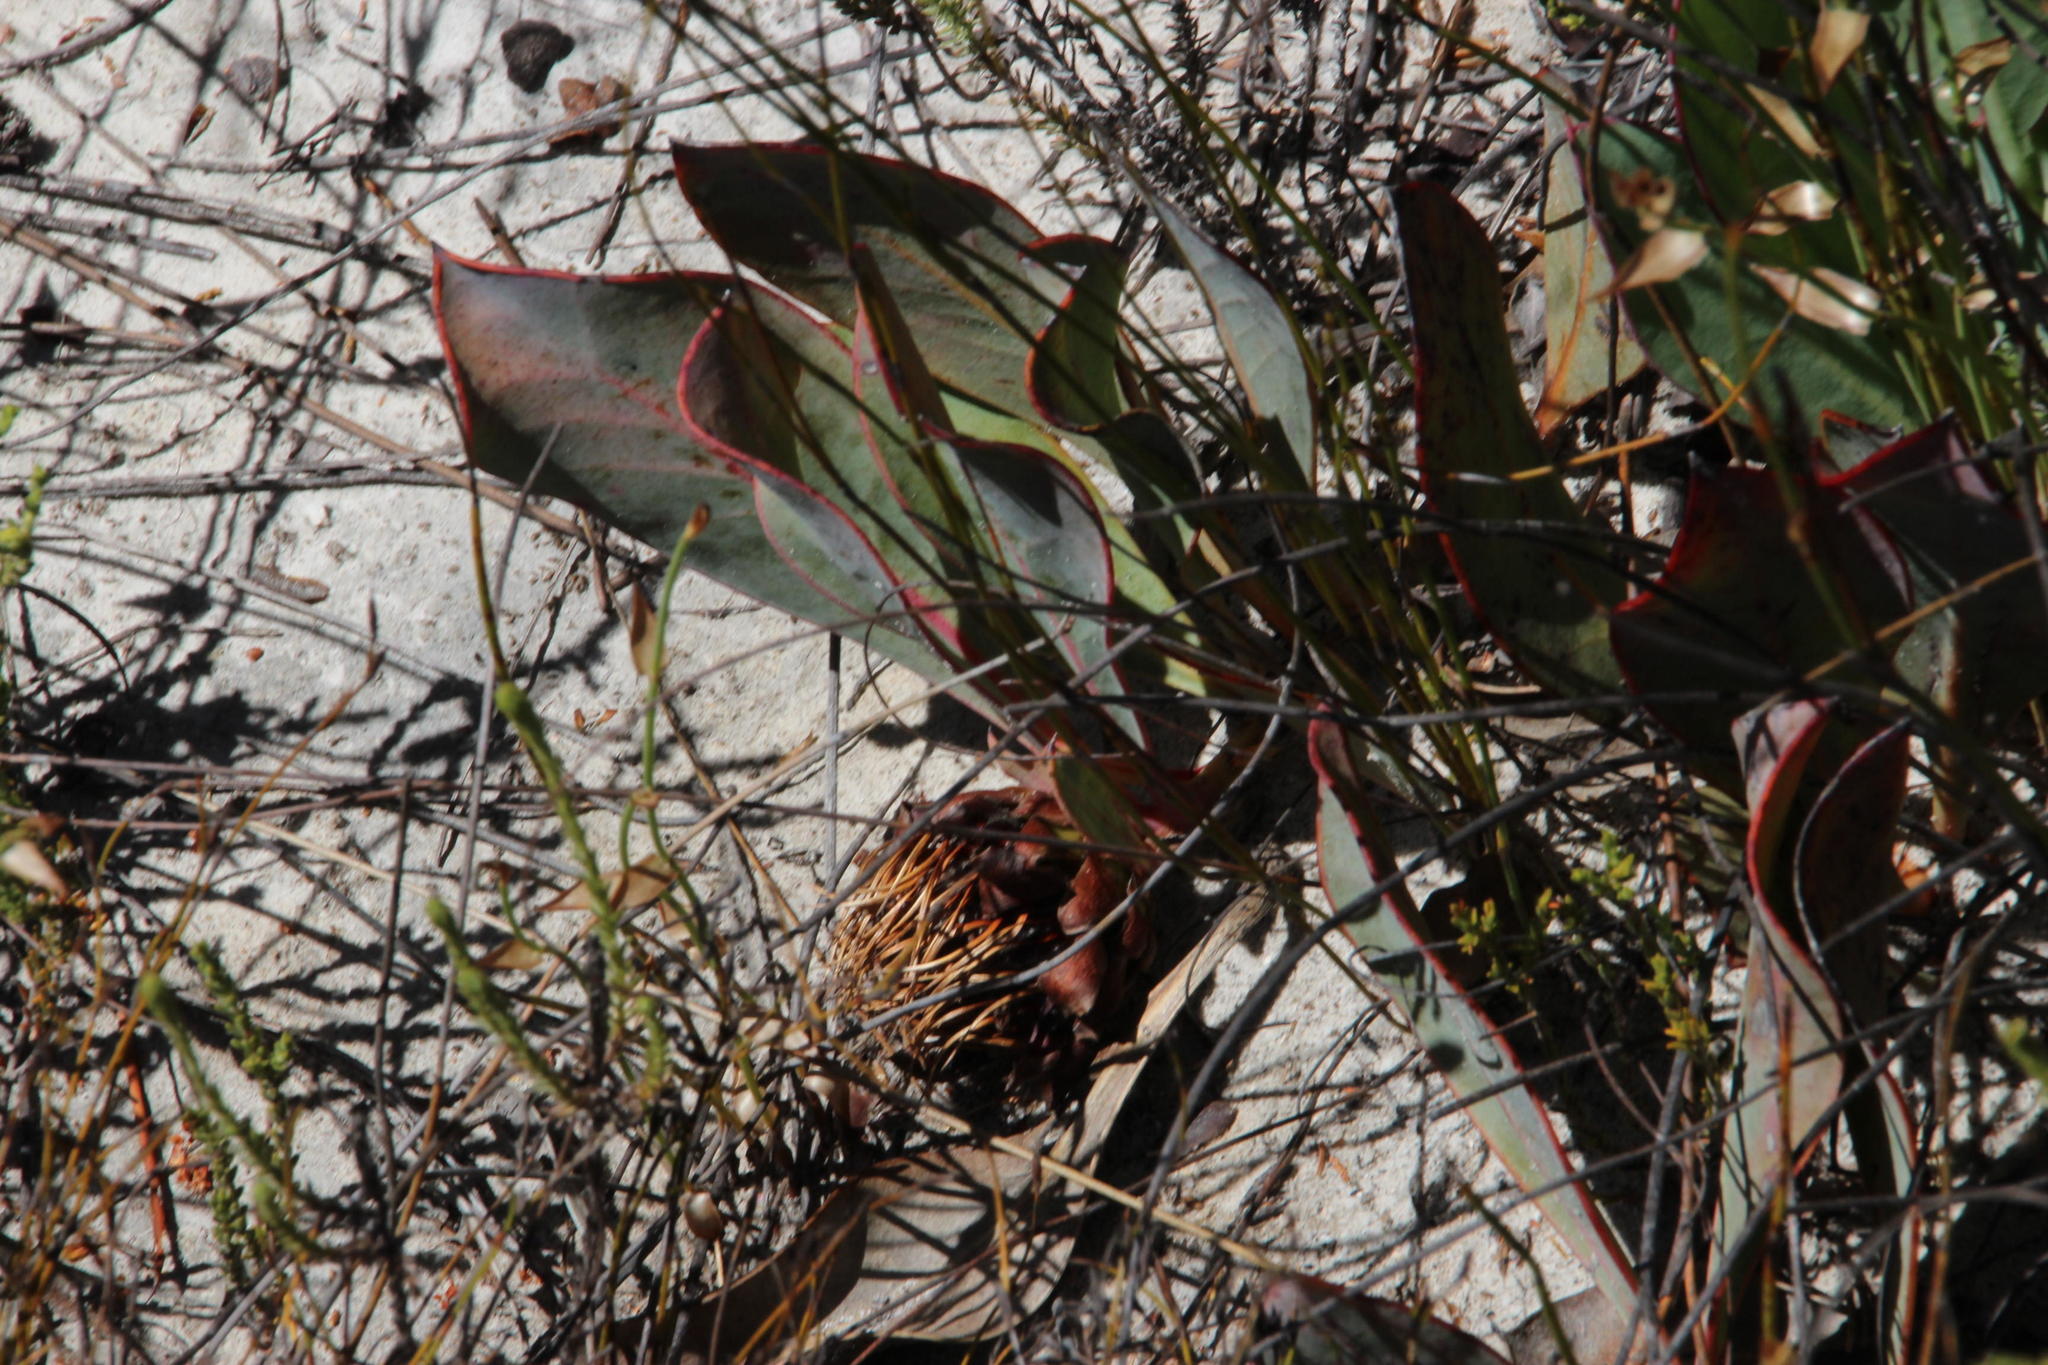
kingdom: Plantae
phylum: Tracheophyta
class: Magnoliopsida
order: Proteales
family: Proteaceae
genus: Protea
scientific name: Protea acaulos
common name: Common ground sugarbush
